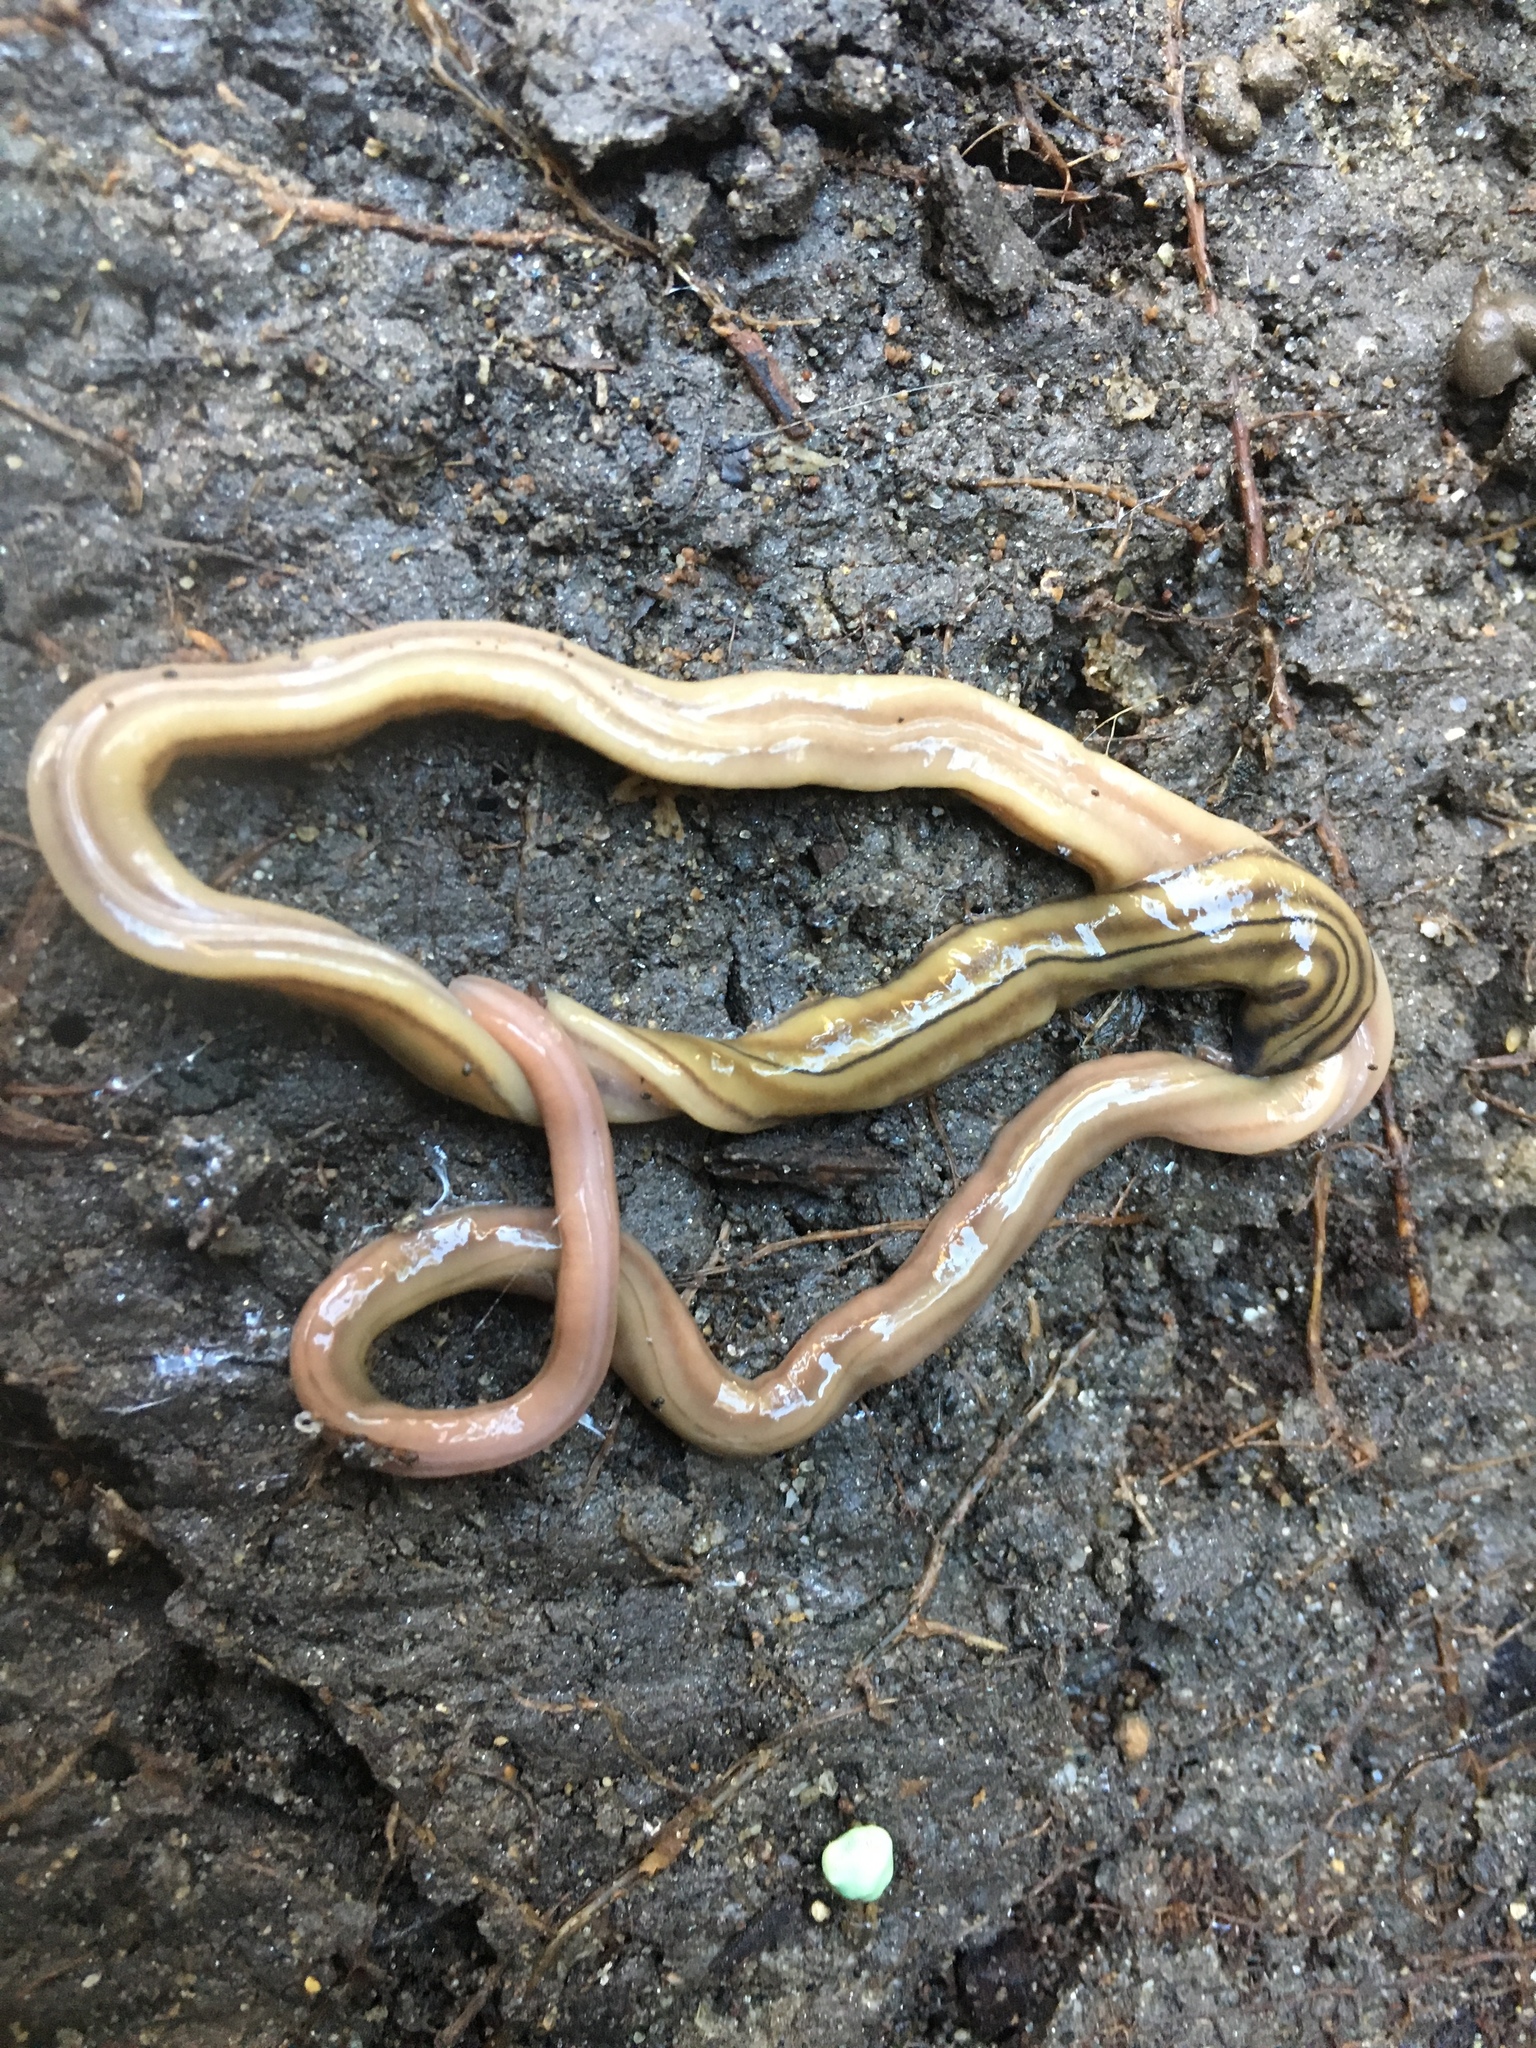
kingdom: Animalia
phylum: Platyhelminthes
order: Tricladida
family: Geoplanidae
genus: Bipalium
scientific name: Bipalium kewense
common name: Hammerhead flatworm
